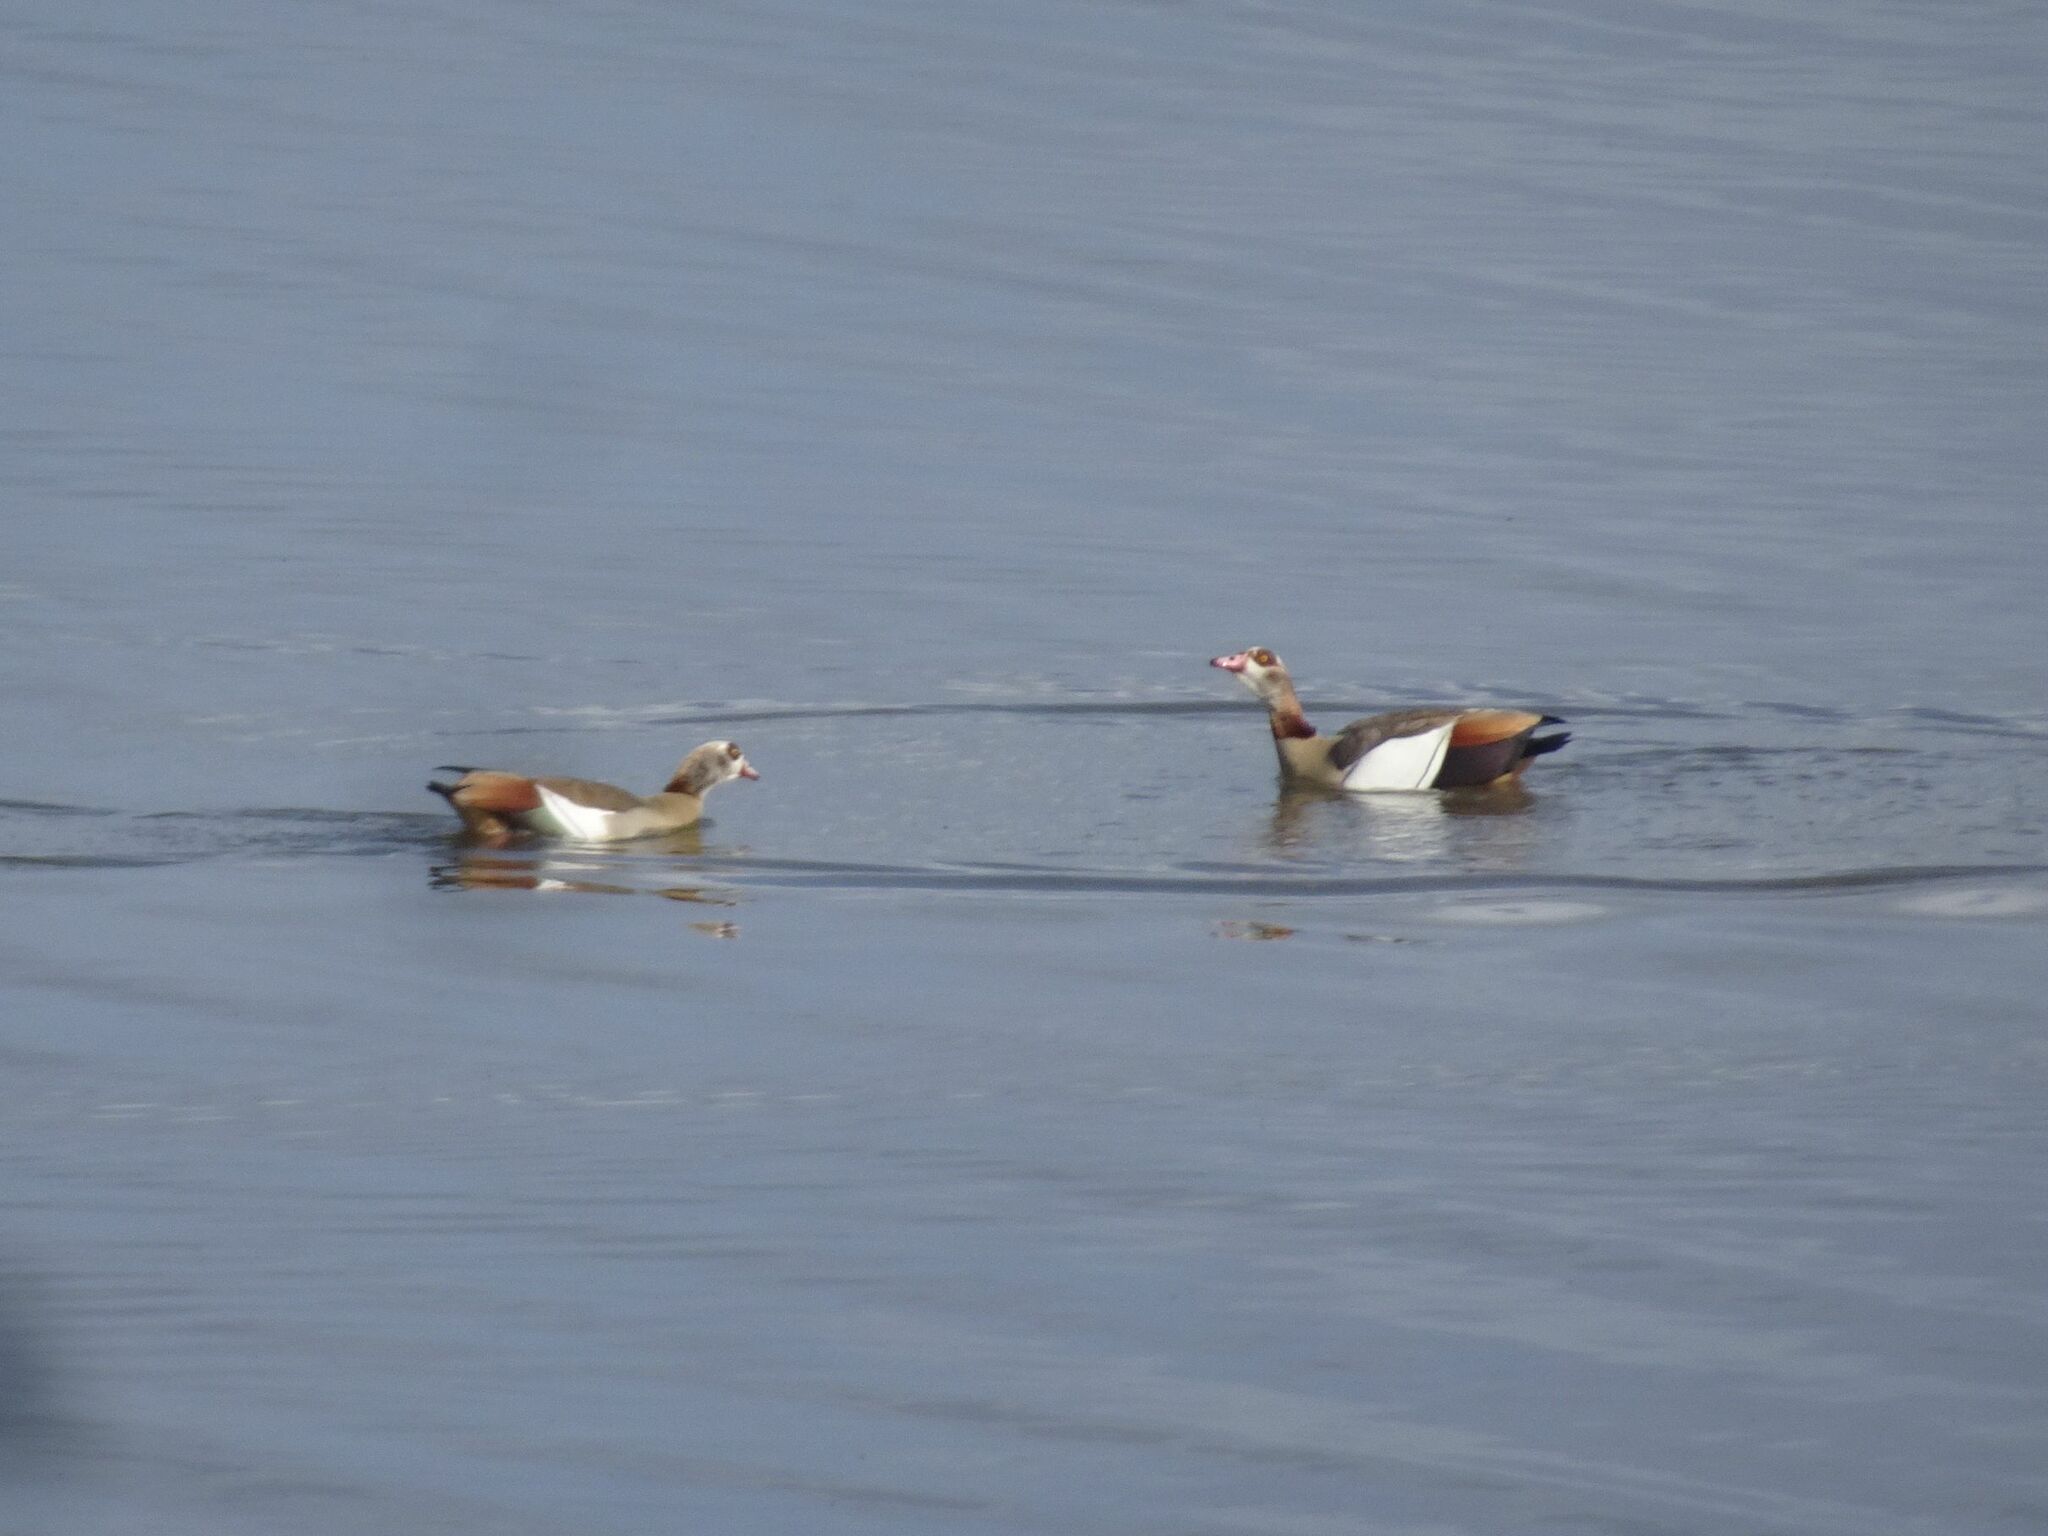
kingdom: Animalia
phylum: Chordata
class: Aves
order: Anseriformes
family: Anatidae
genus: Alopochen
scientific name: Alopochen aegyptiaca
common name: Egyptian goose
